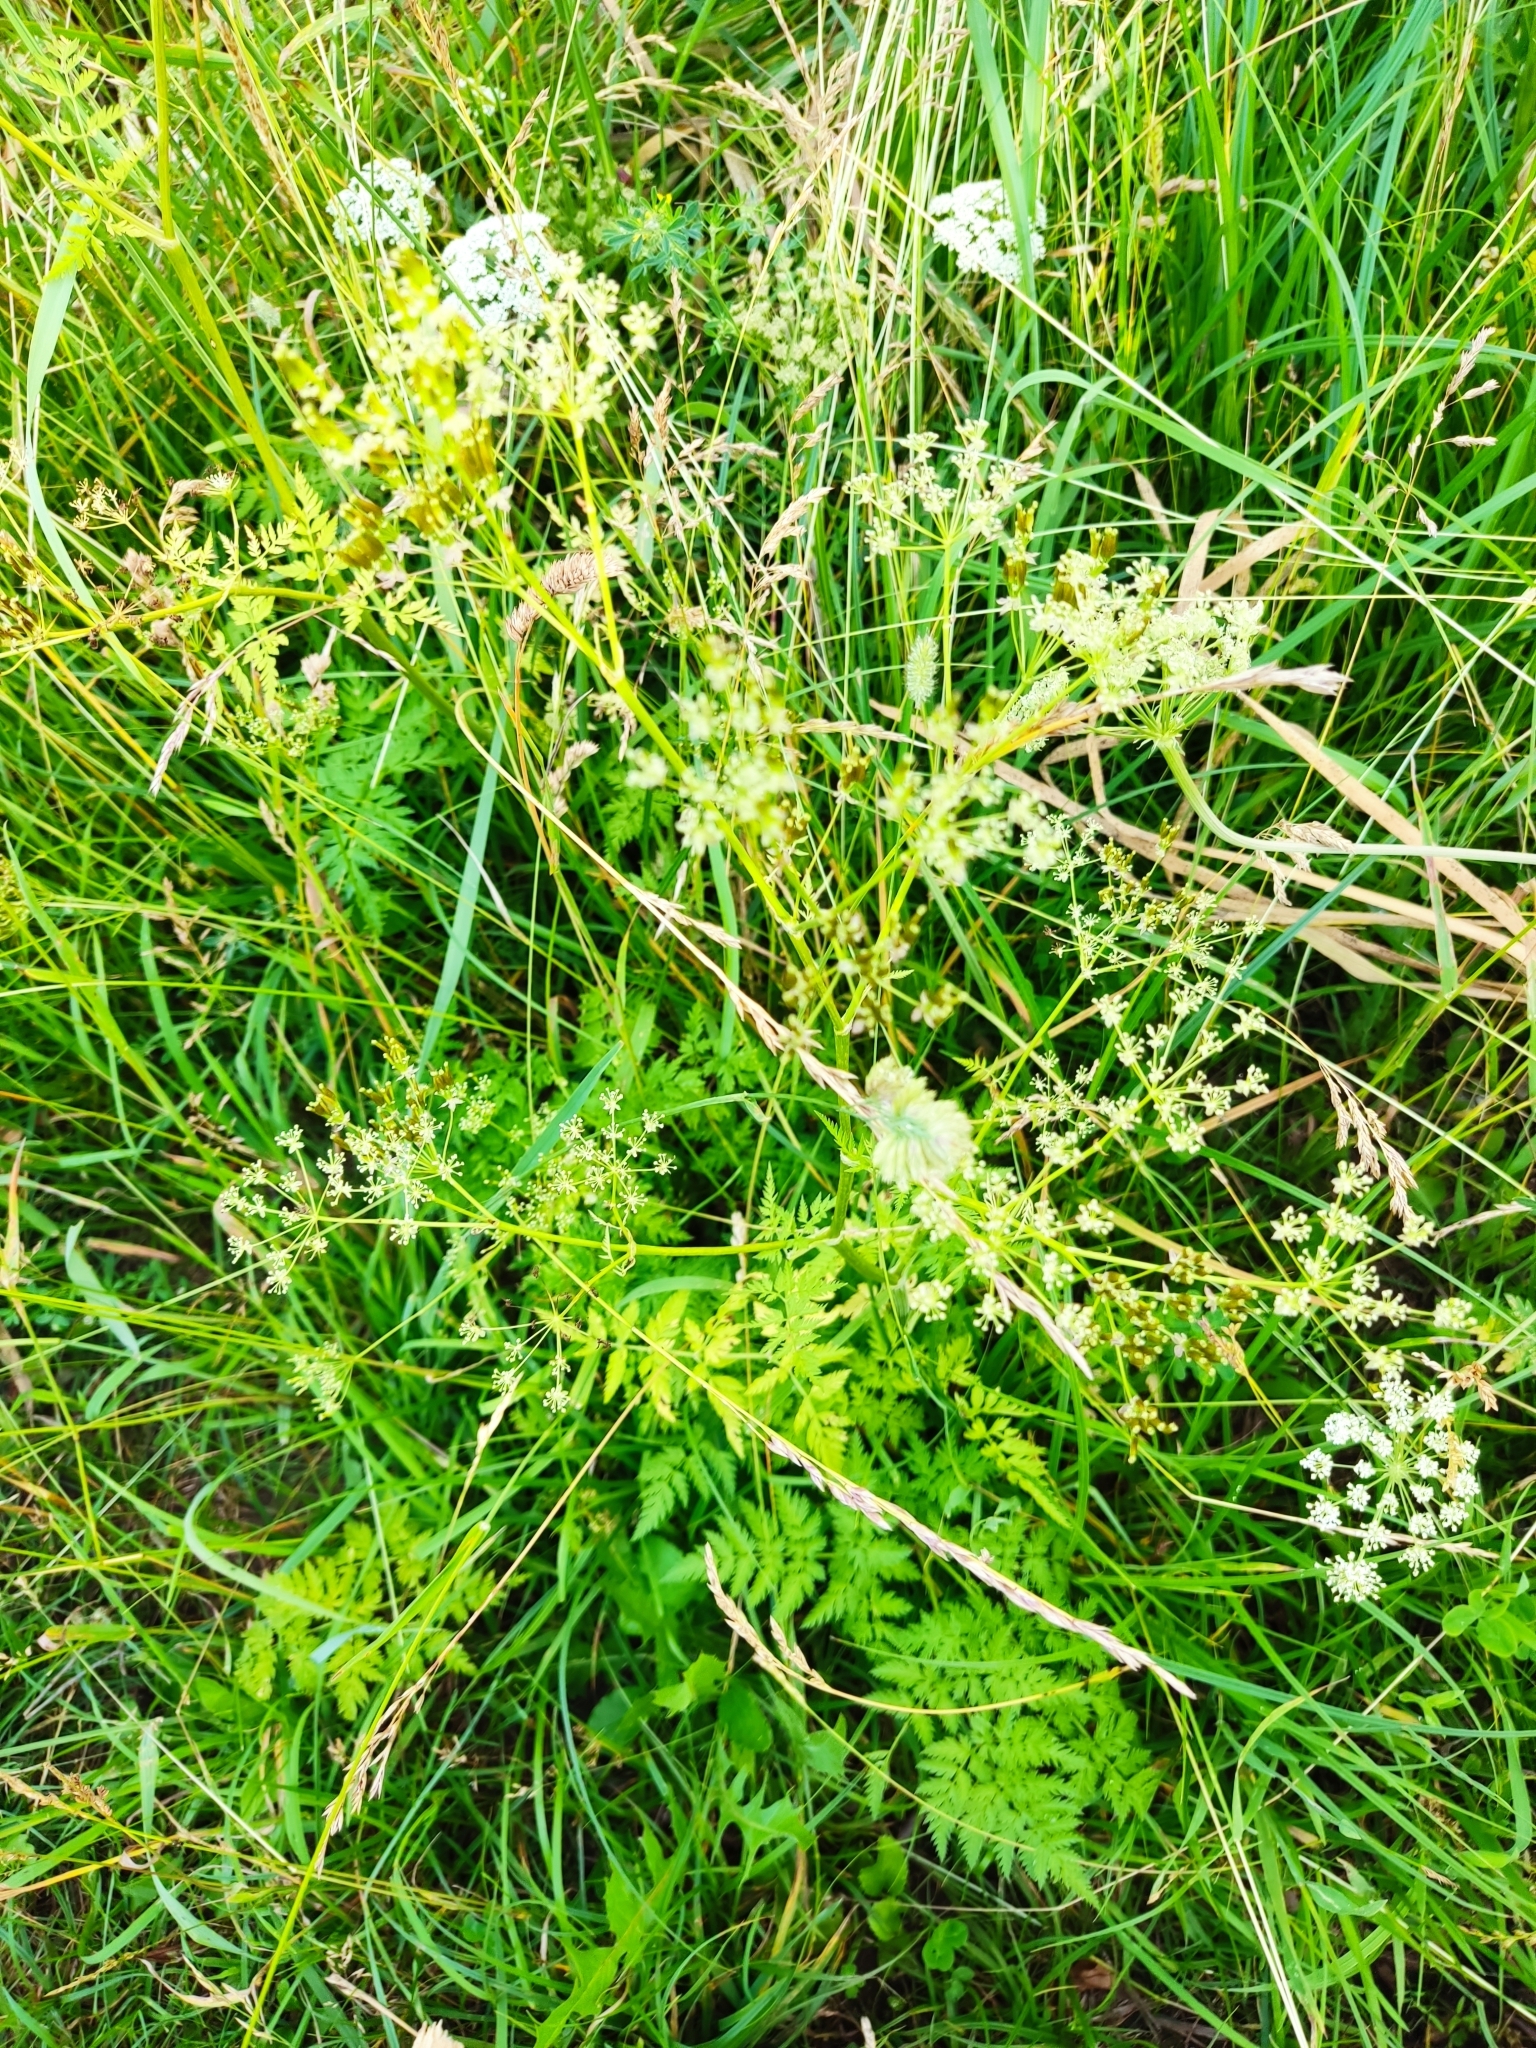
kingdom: Plantae
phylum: Tracheophyta
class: Magnoliopsida
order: Apiales
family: Apiaceae
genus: Anthriscus
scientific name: Anthriscus sylvestris
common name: Cow parsley
